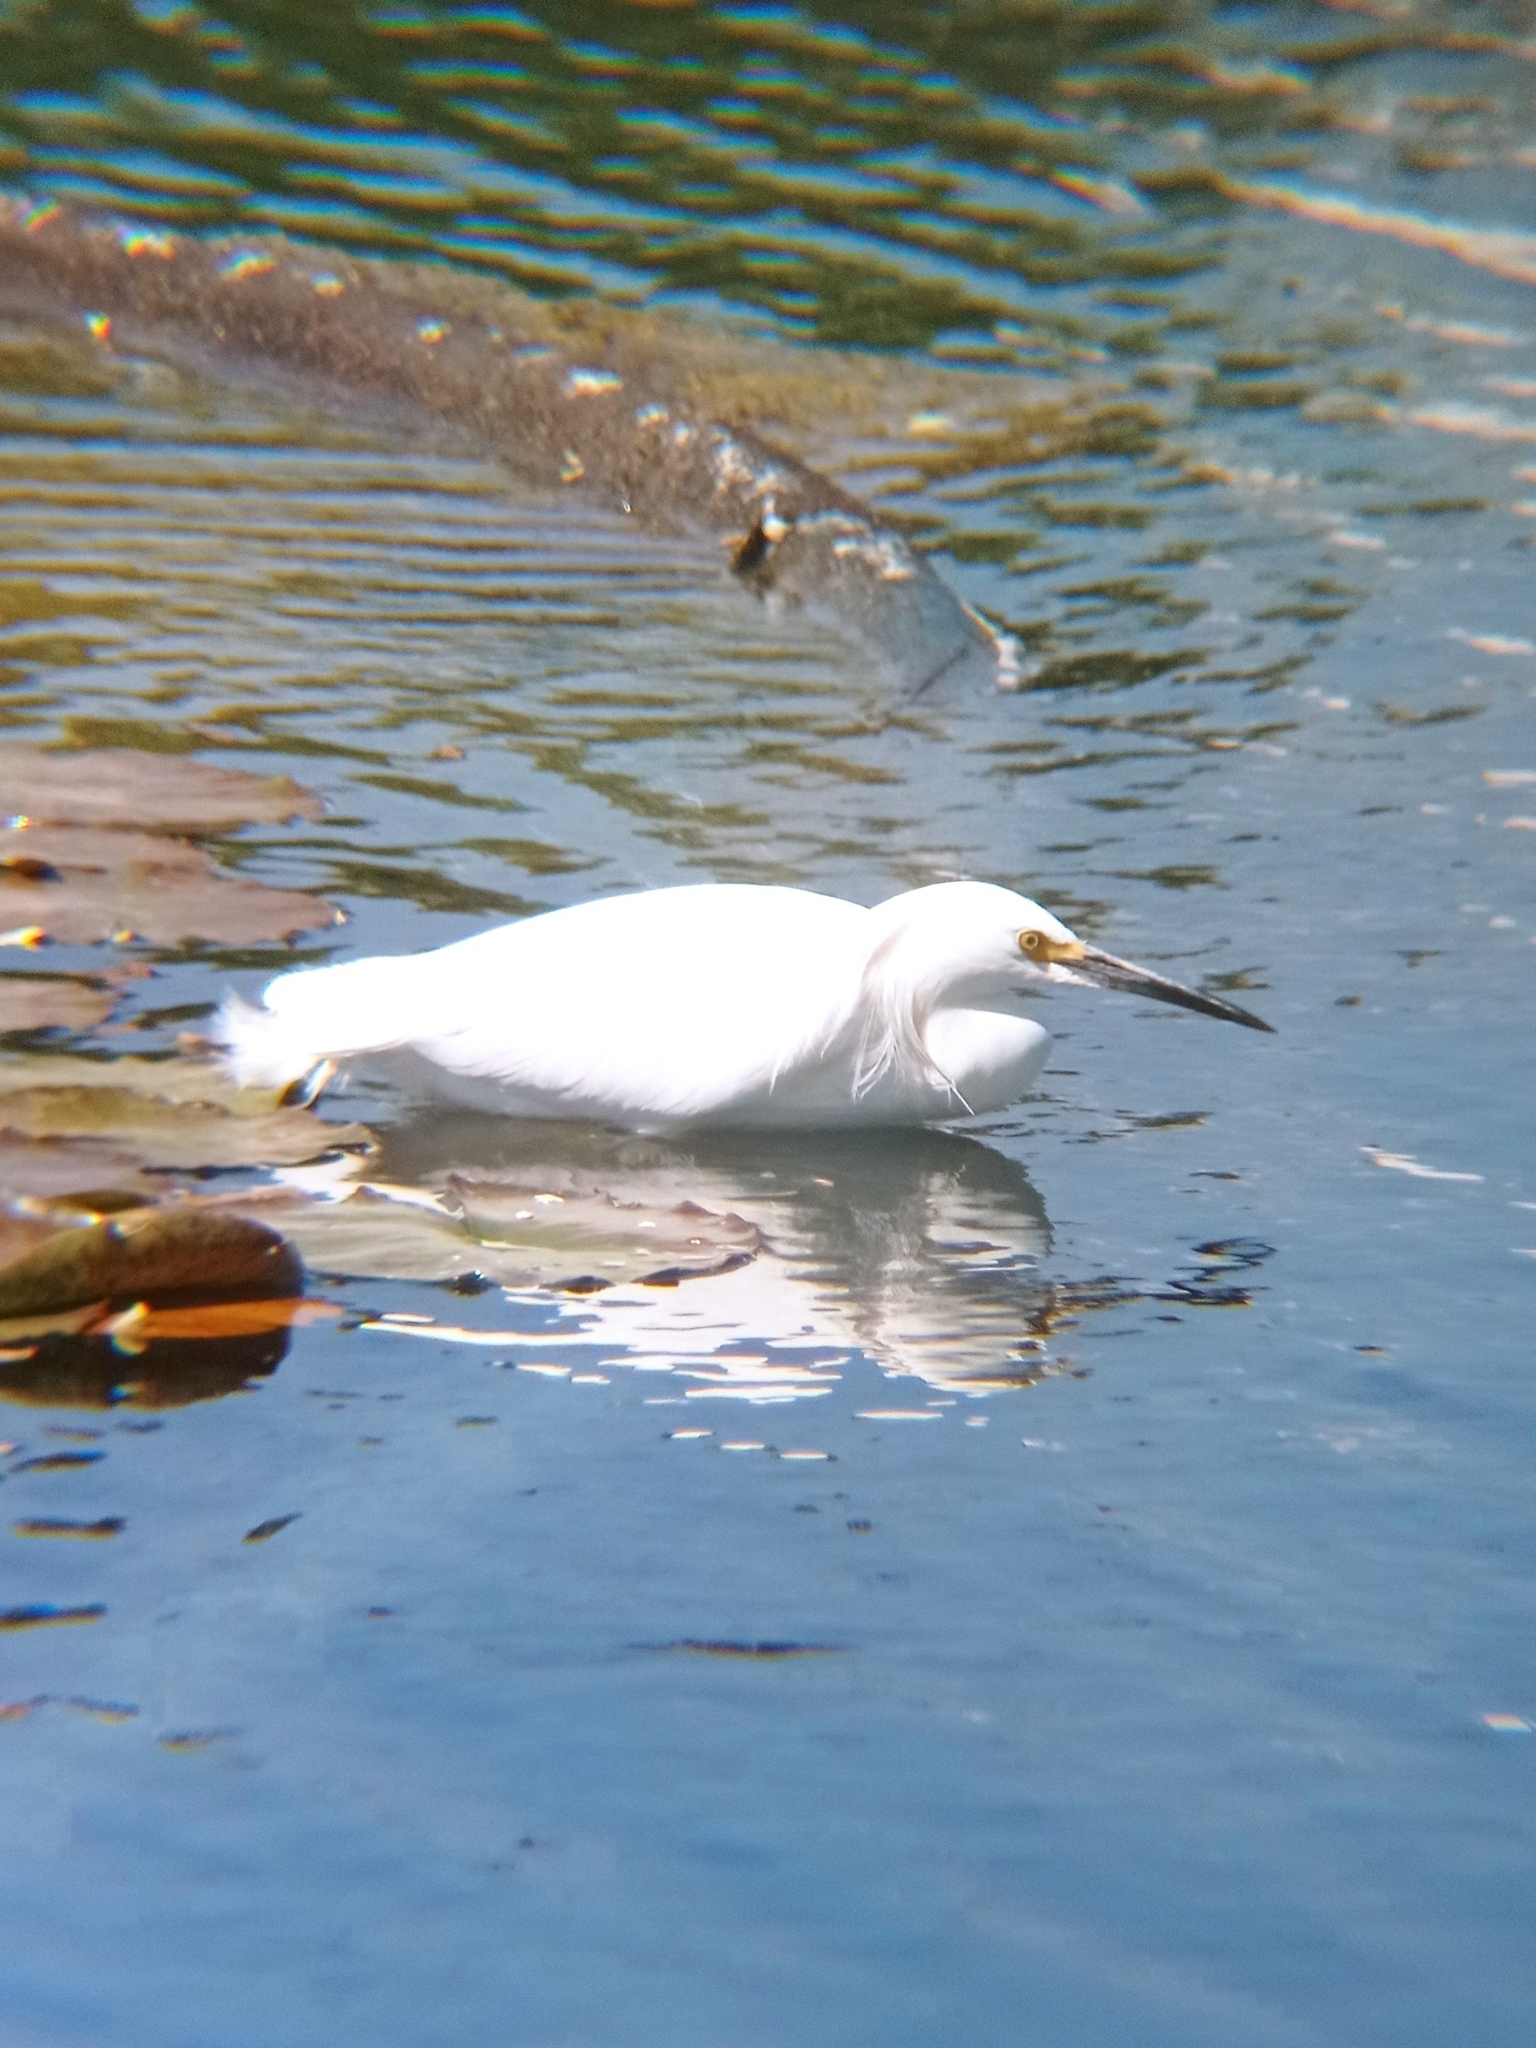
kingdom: Animalia
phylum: Chordata
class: Aves
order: Pelecaniformes
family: Ardeidae
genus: Egretta
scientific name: Egretta thula
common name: Snowy egret
